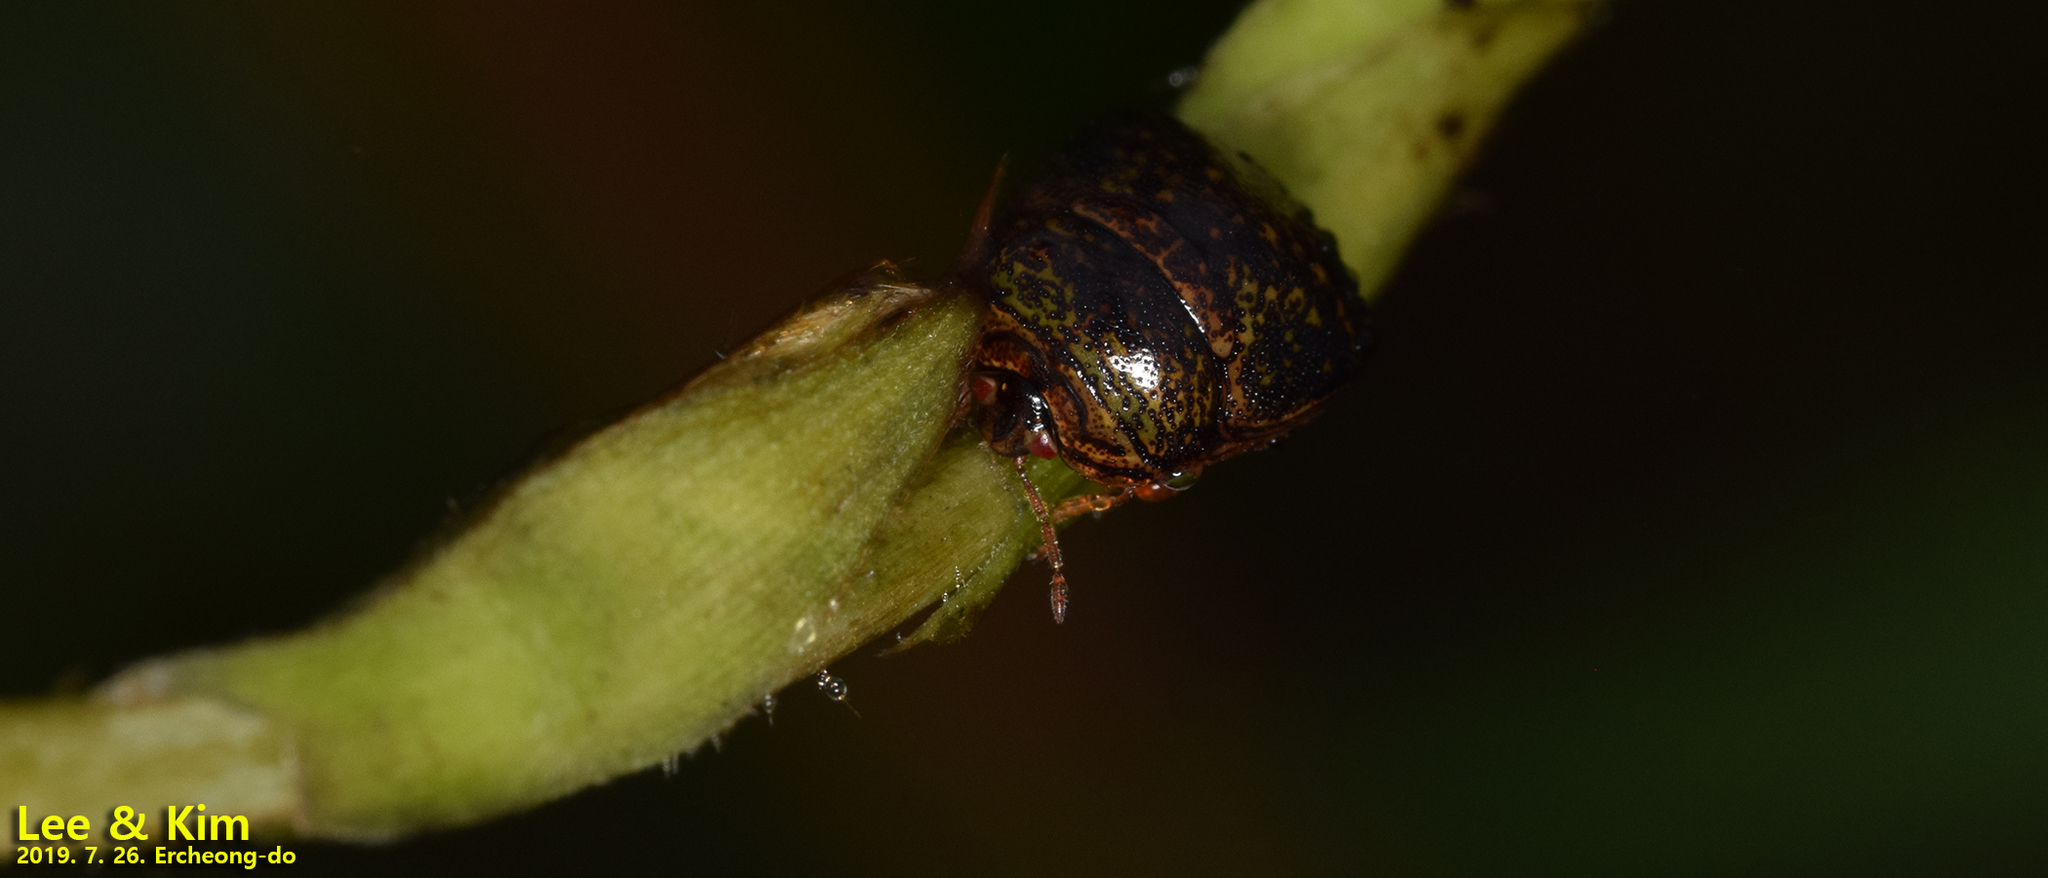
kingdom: Animalia
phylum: Arthropoda
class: Insecta
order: Hemiptera
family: Plataspidae
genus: Megacopta
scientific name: Megacopta cribraria
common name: Bean plataspid
